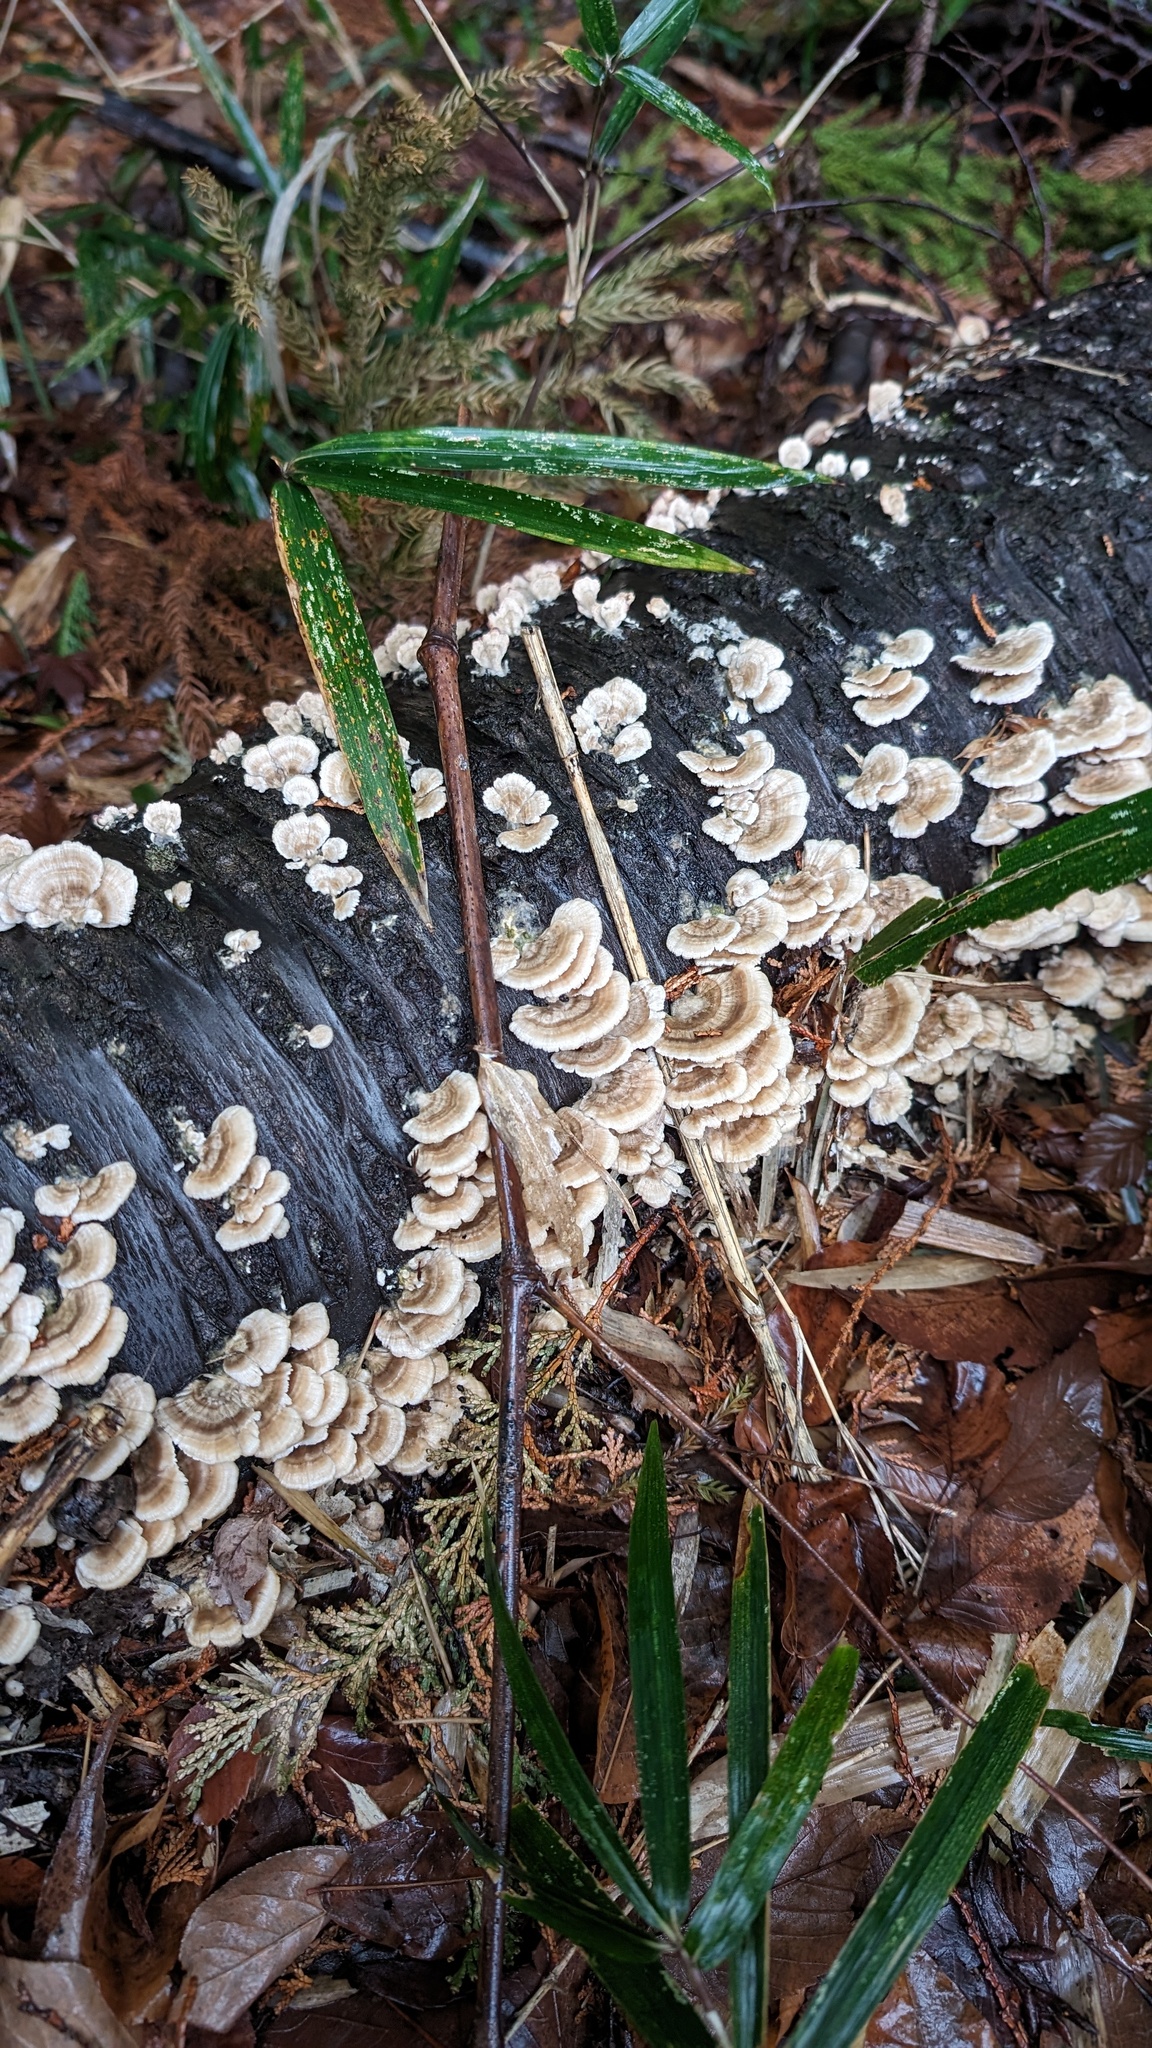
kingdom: Fungi
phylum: Basidiomycota
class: Agaricomycetes
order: Hymenochaetales
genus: Trichaptum
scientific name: Trichaptum biforme
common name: Violet-toothed polypore
